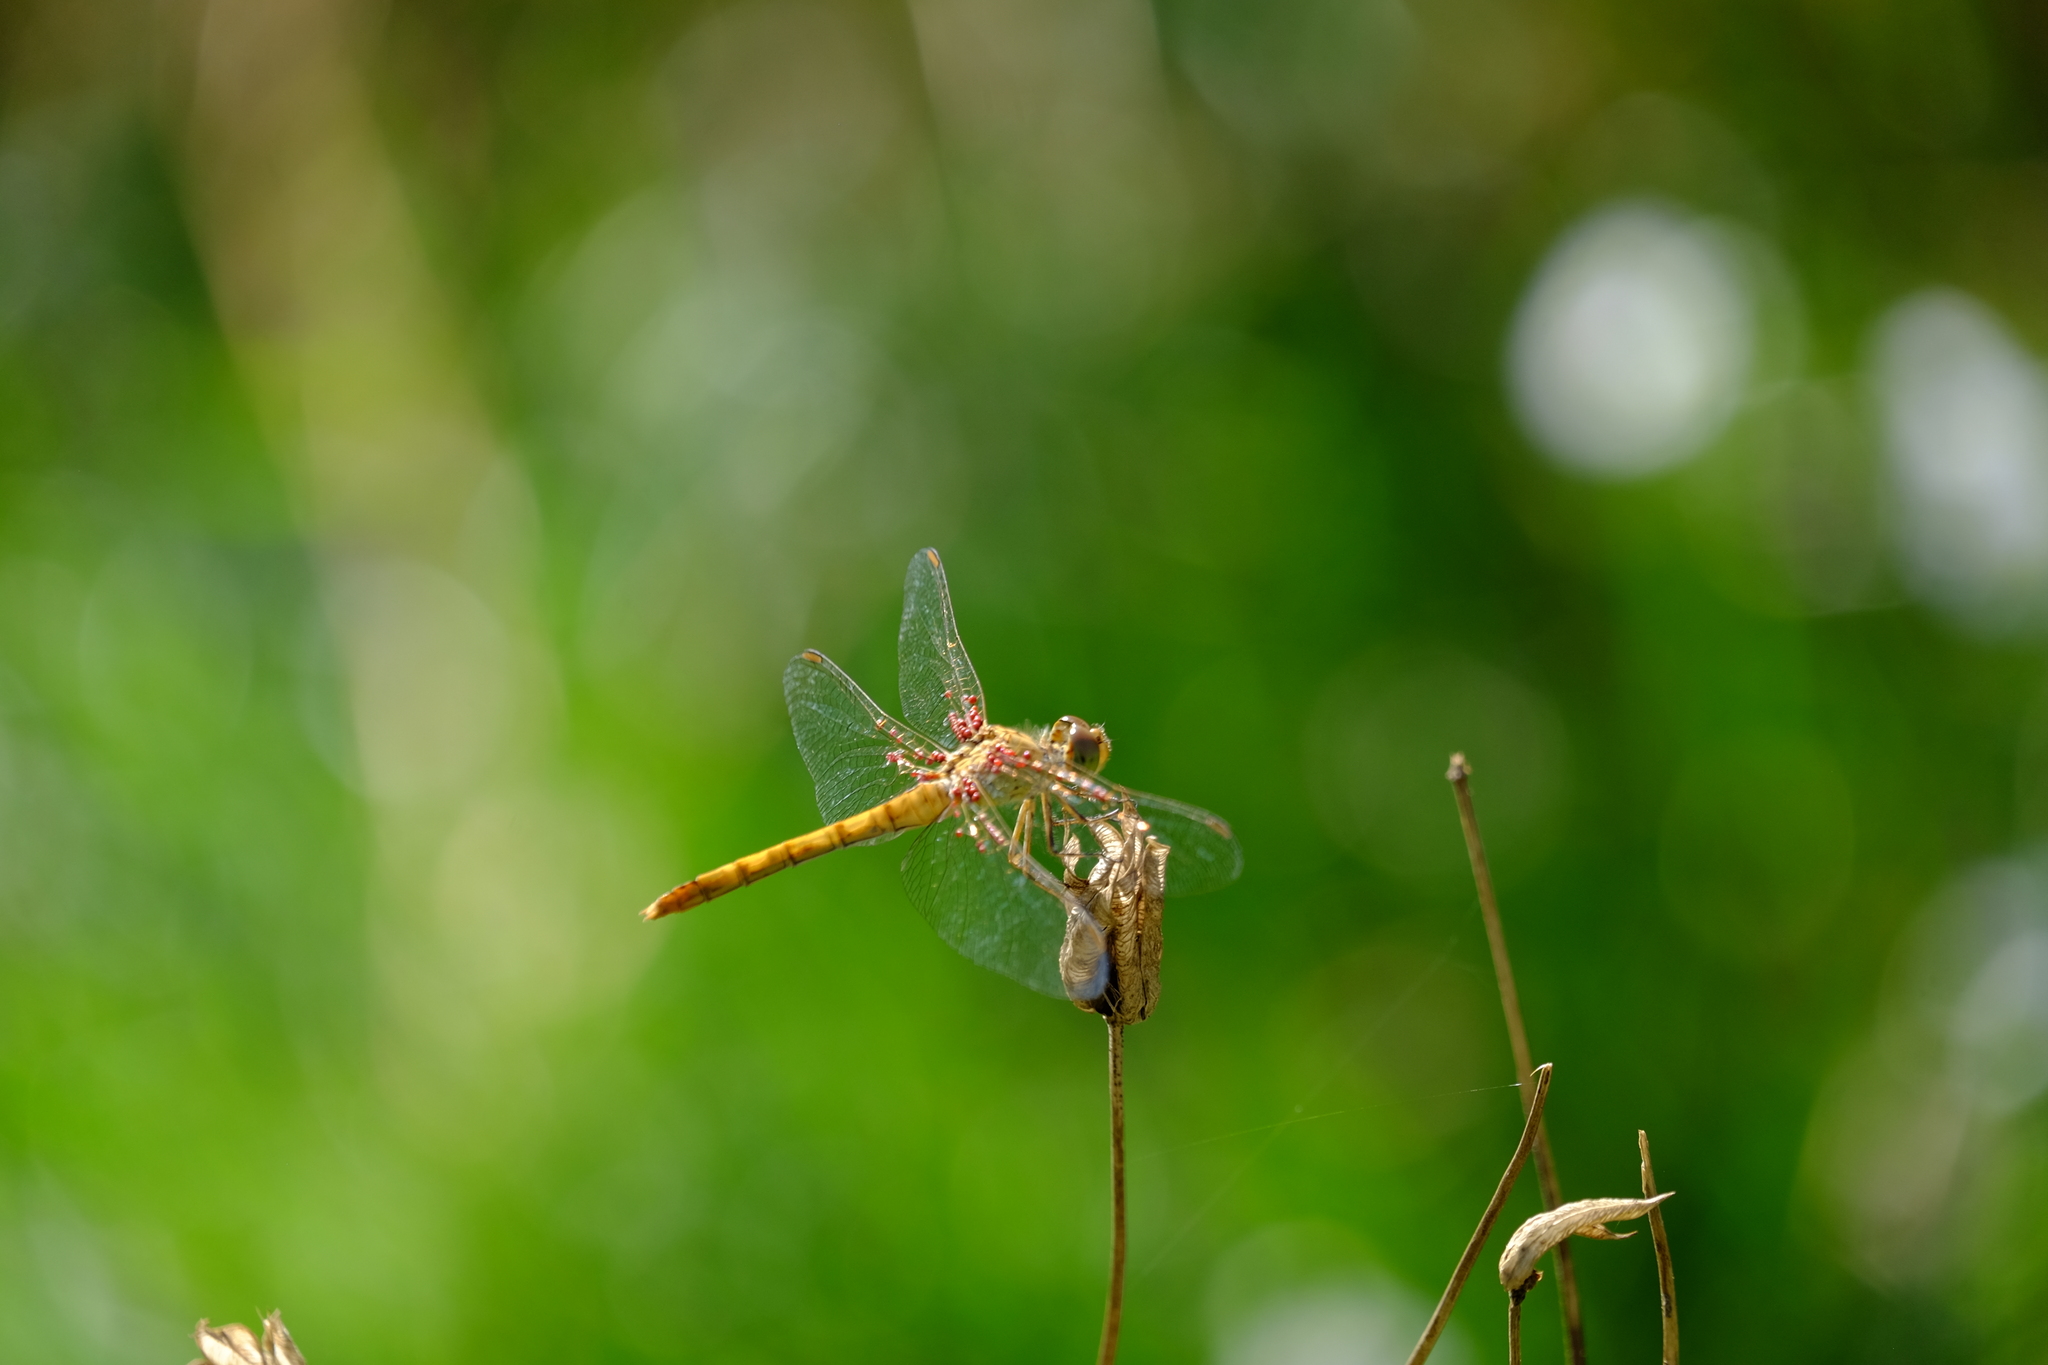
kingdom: Animalia
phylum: Arthropoda
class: Insecta
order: Odonata
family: Libellulidae
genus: Sympetrum
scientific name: Sympetrum meridionale
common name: Southern darter
